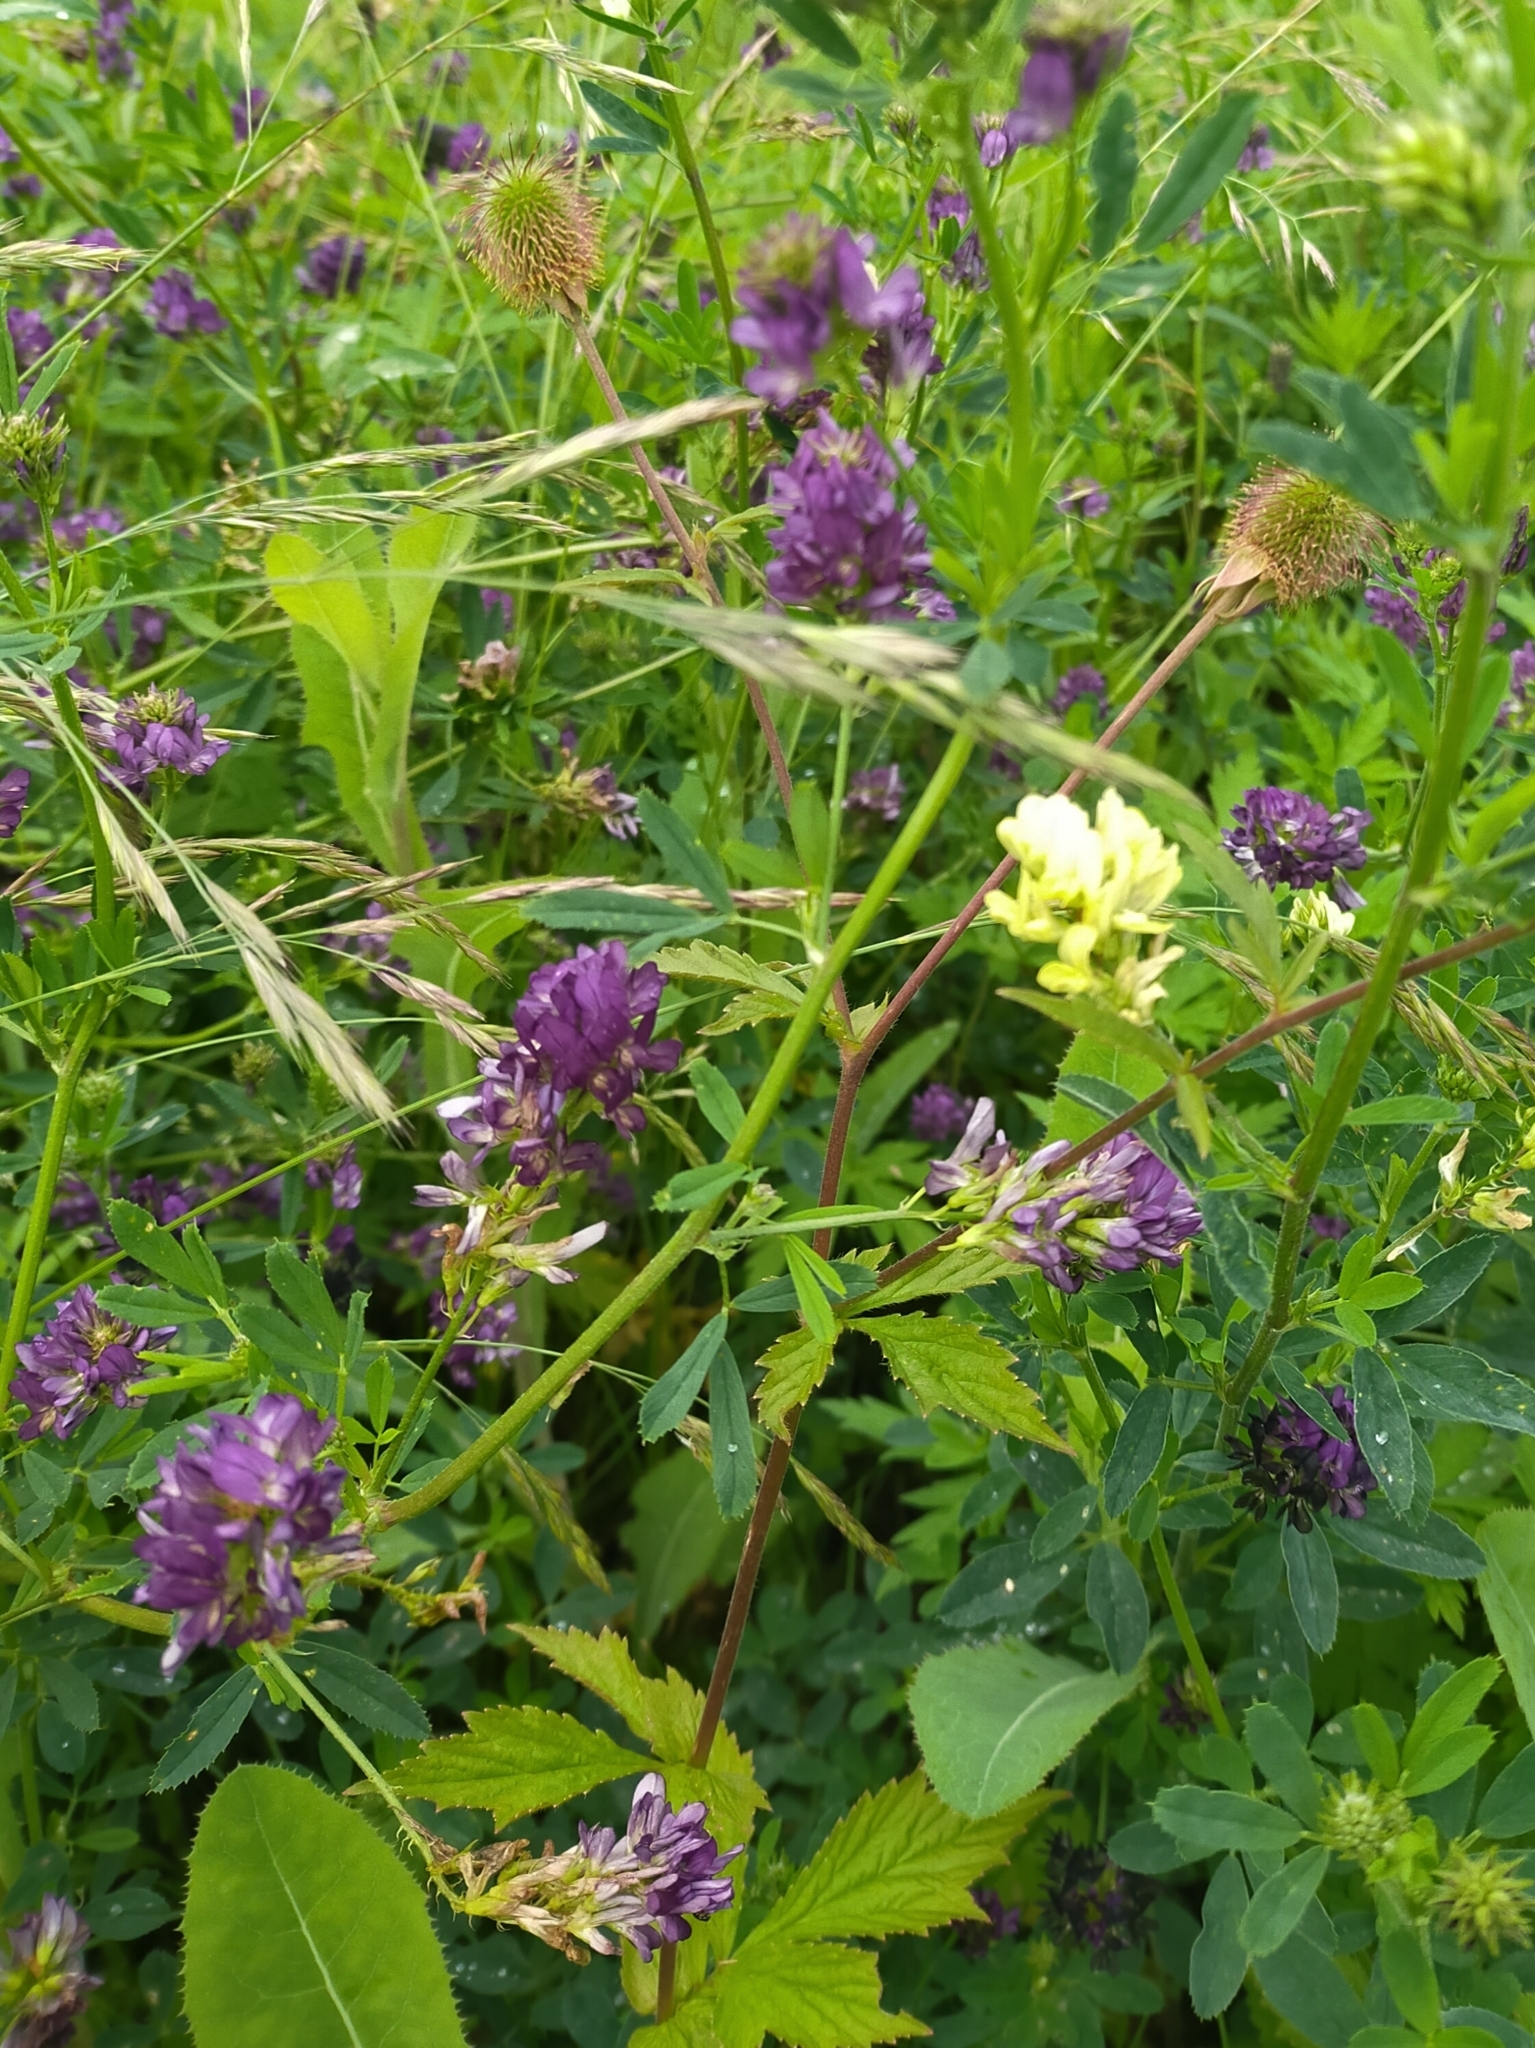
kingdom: Plantae
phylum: Tracheophyta
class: Magnoliopsida
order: Fabales
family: Fabaceae
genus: Medicago
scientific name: Medicago varia
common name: Sand lucerne
